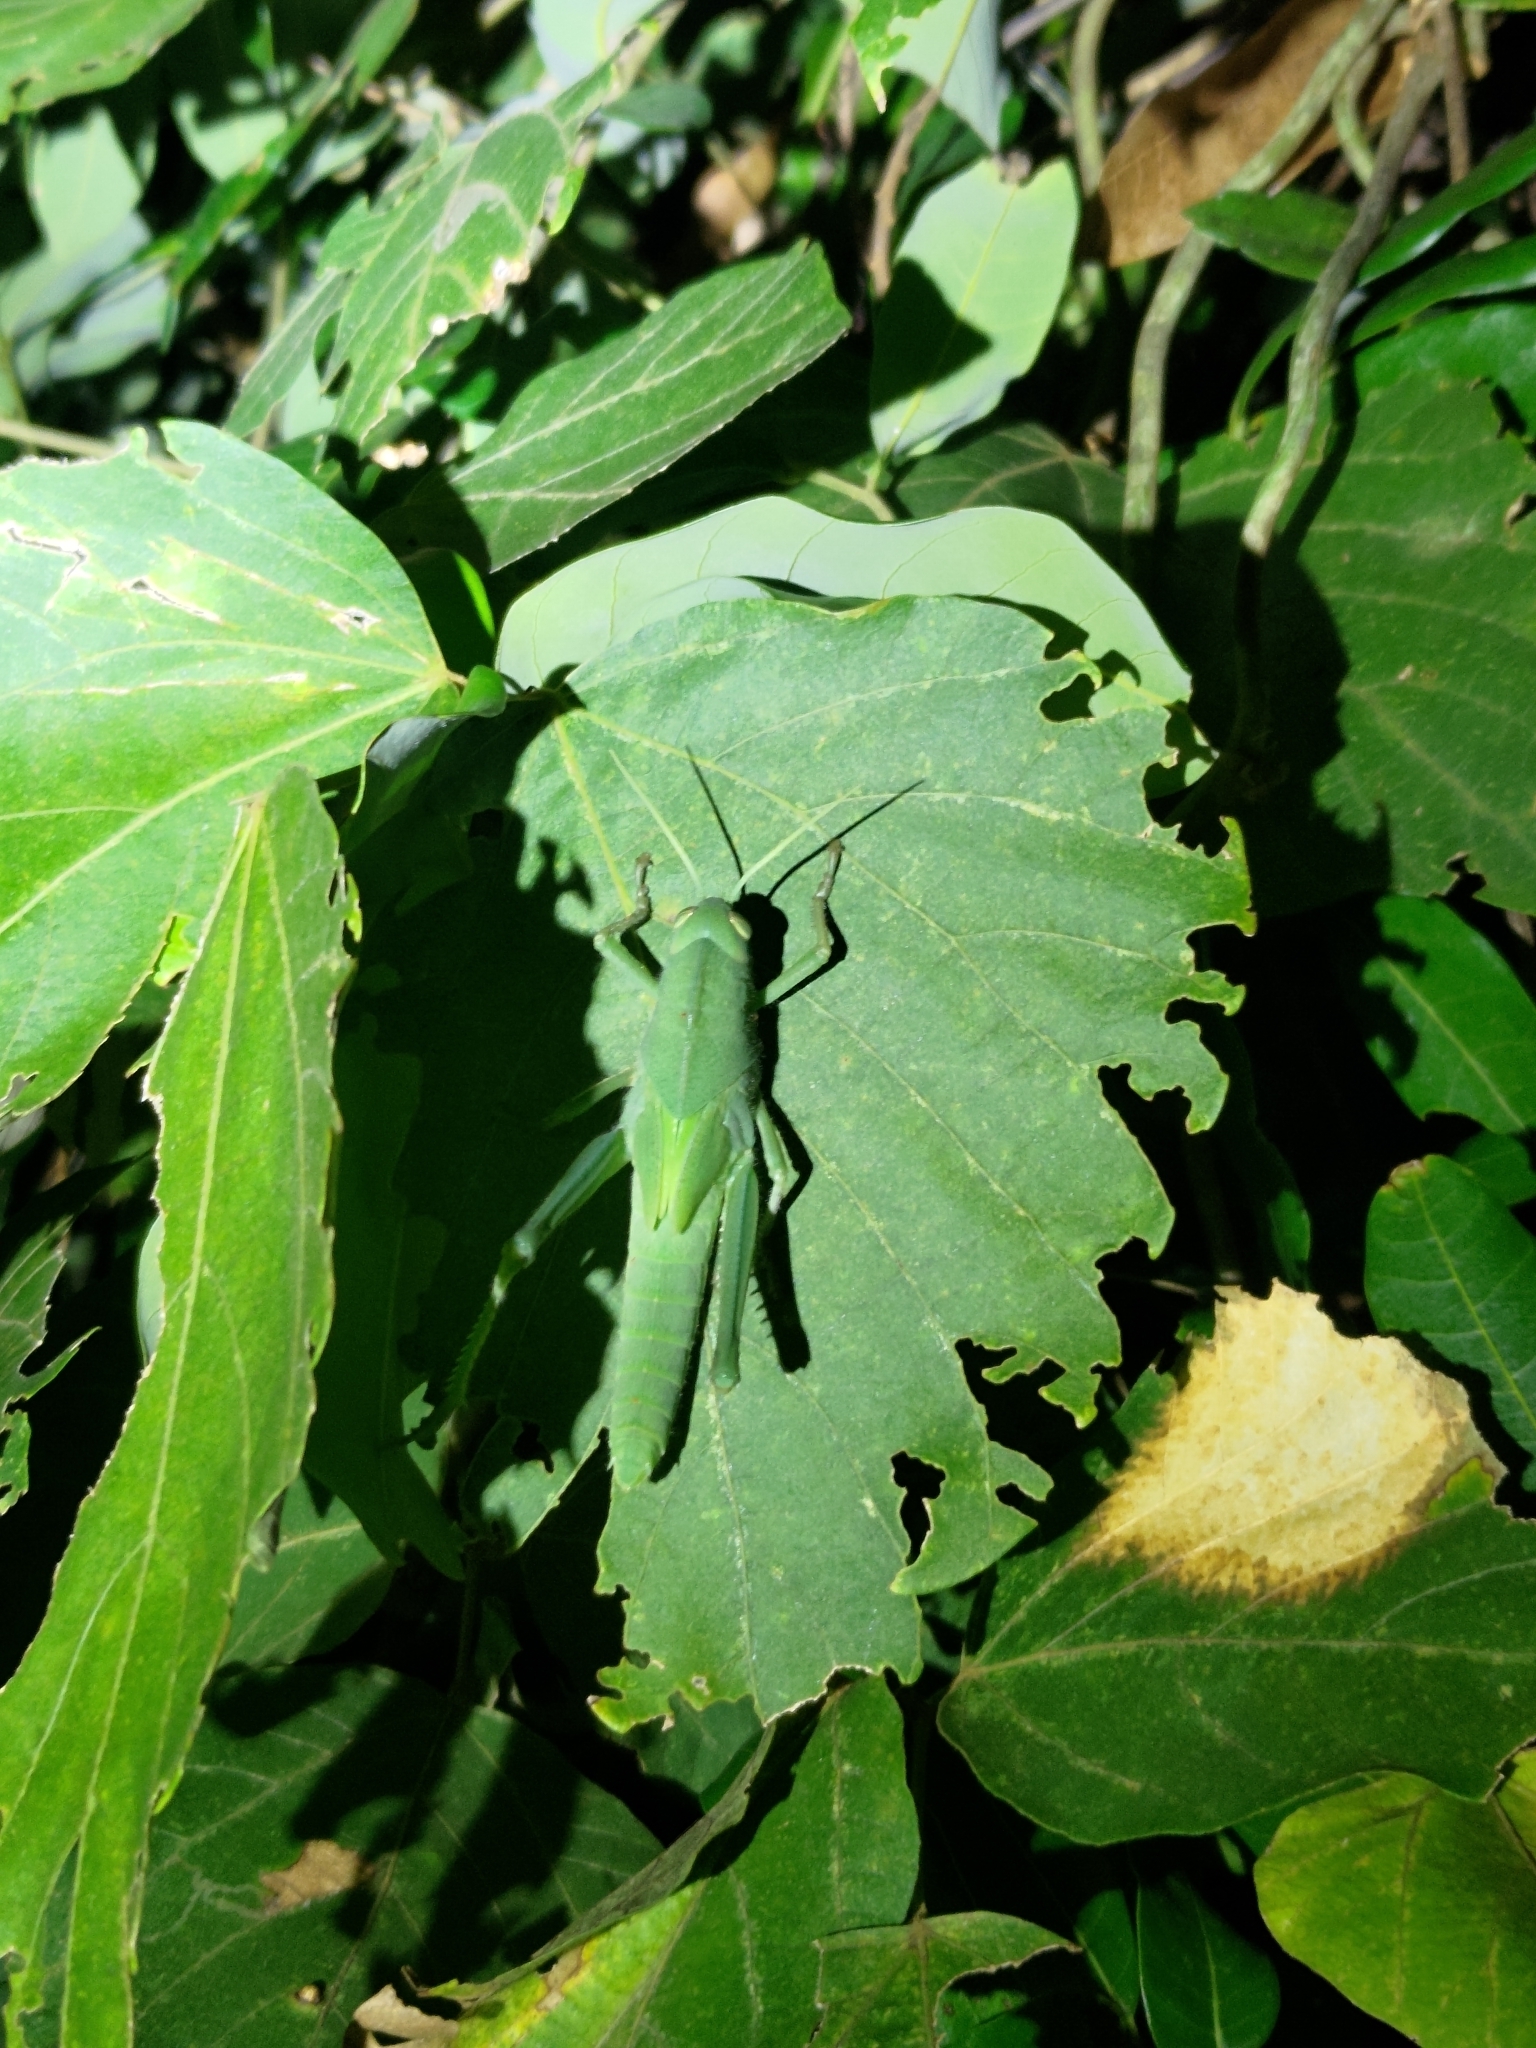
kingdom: Animalia
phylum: Arthropoda
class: Insecta
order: Orthoptera
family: Acrididae
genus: Chondracris
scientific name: Chondracris rosea
